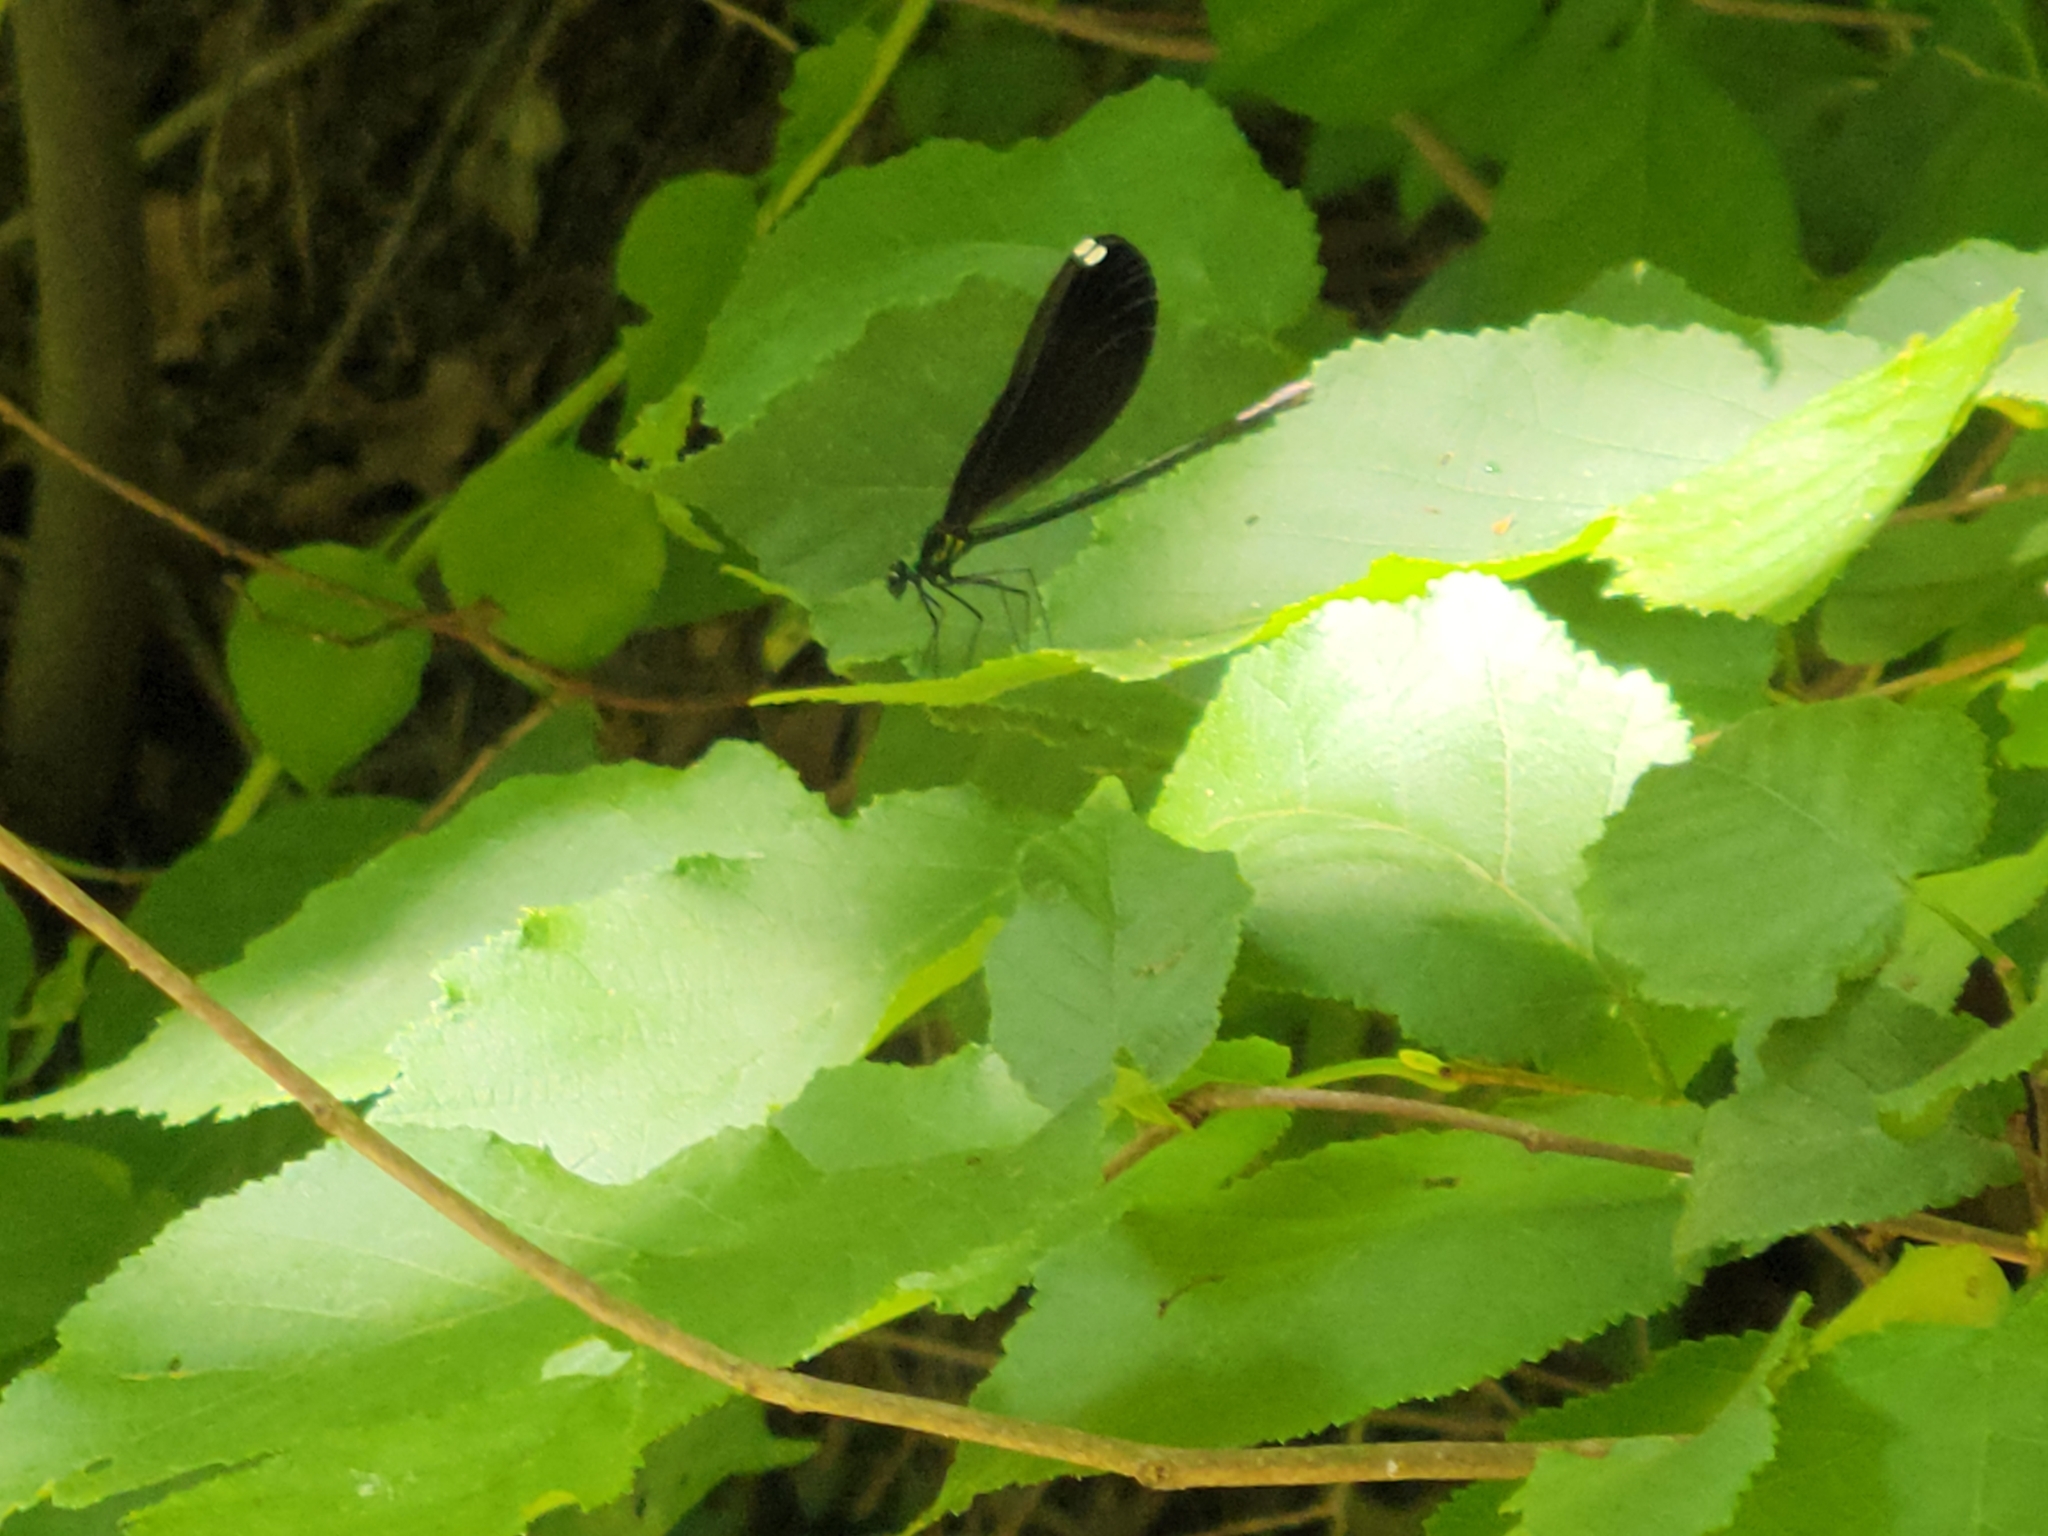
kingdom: Animalia
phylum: Arthropoda
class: Insecta
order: Odonata
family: Calopterygidae
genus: Calopteryx
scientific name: Calopteryx maculata
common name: Ebony jewelwing
